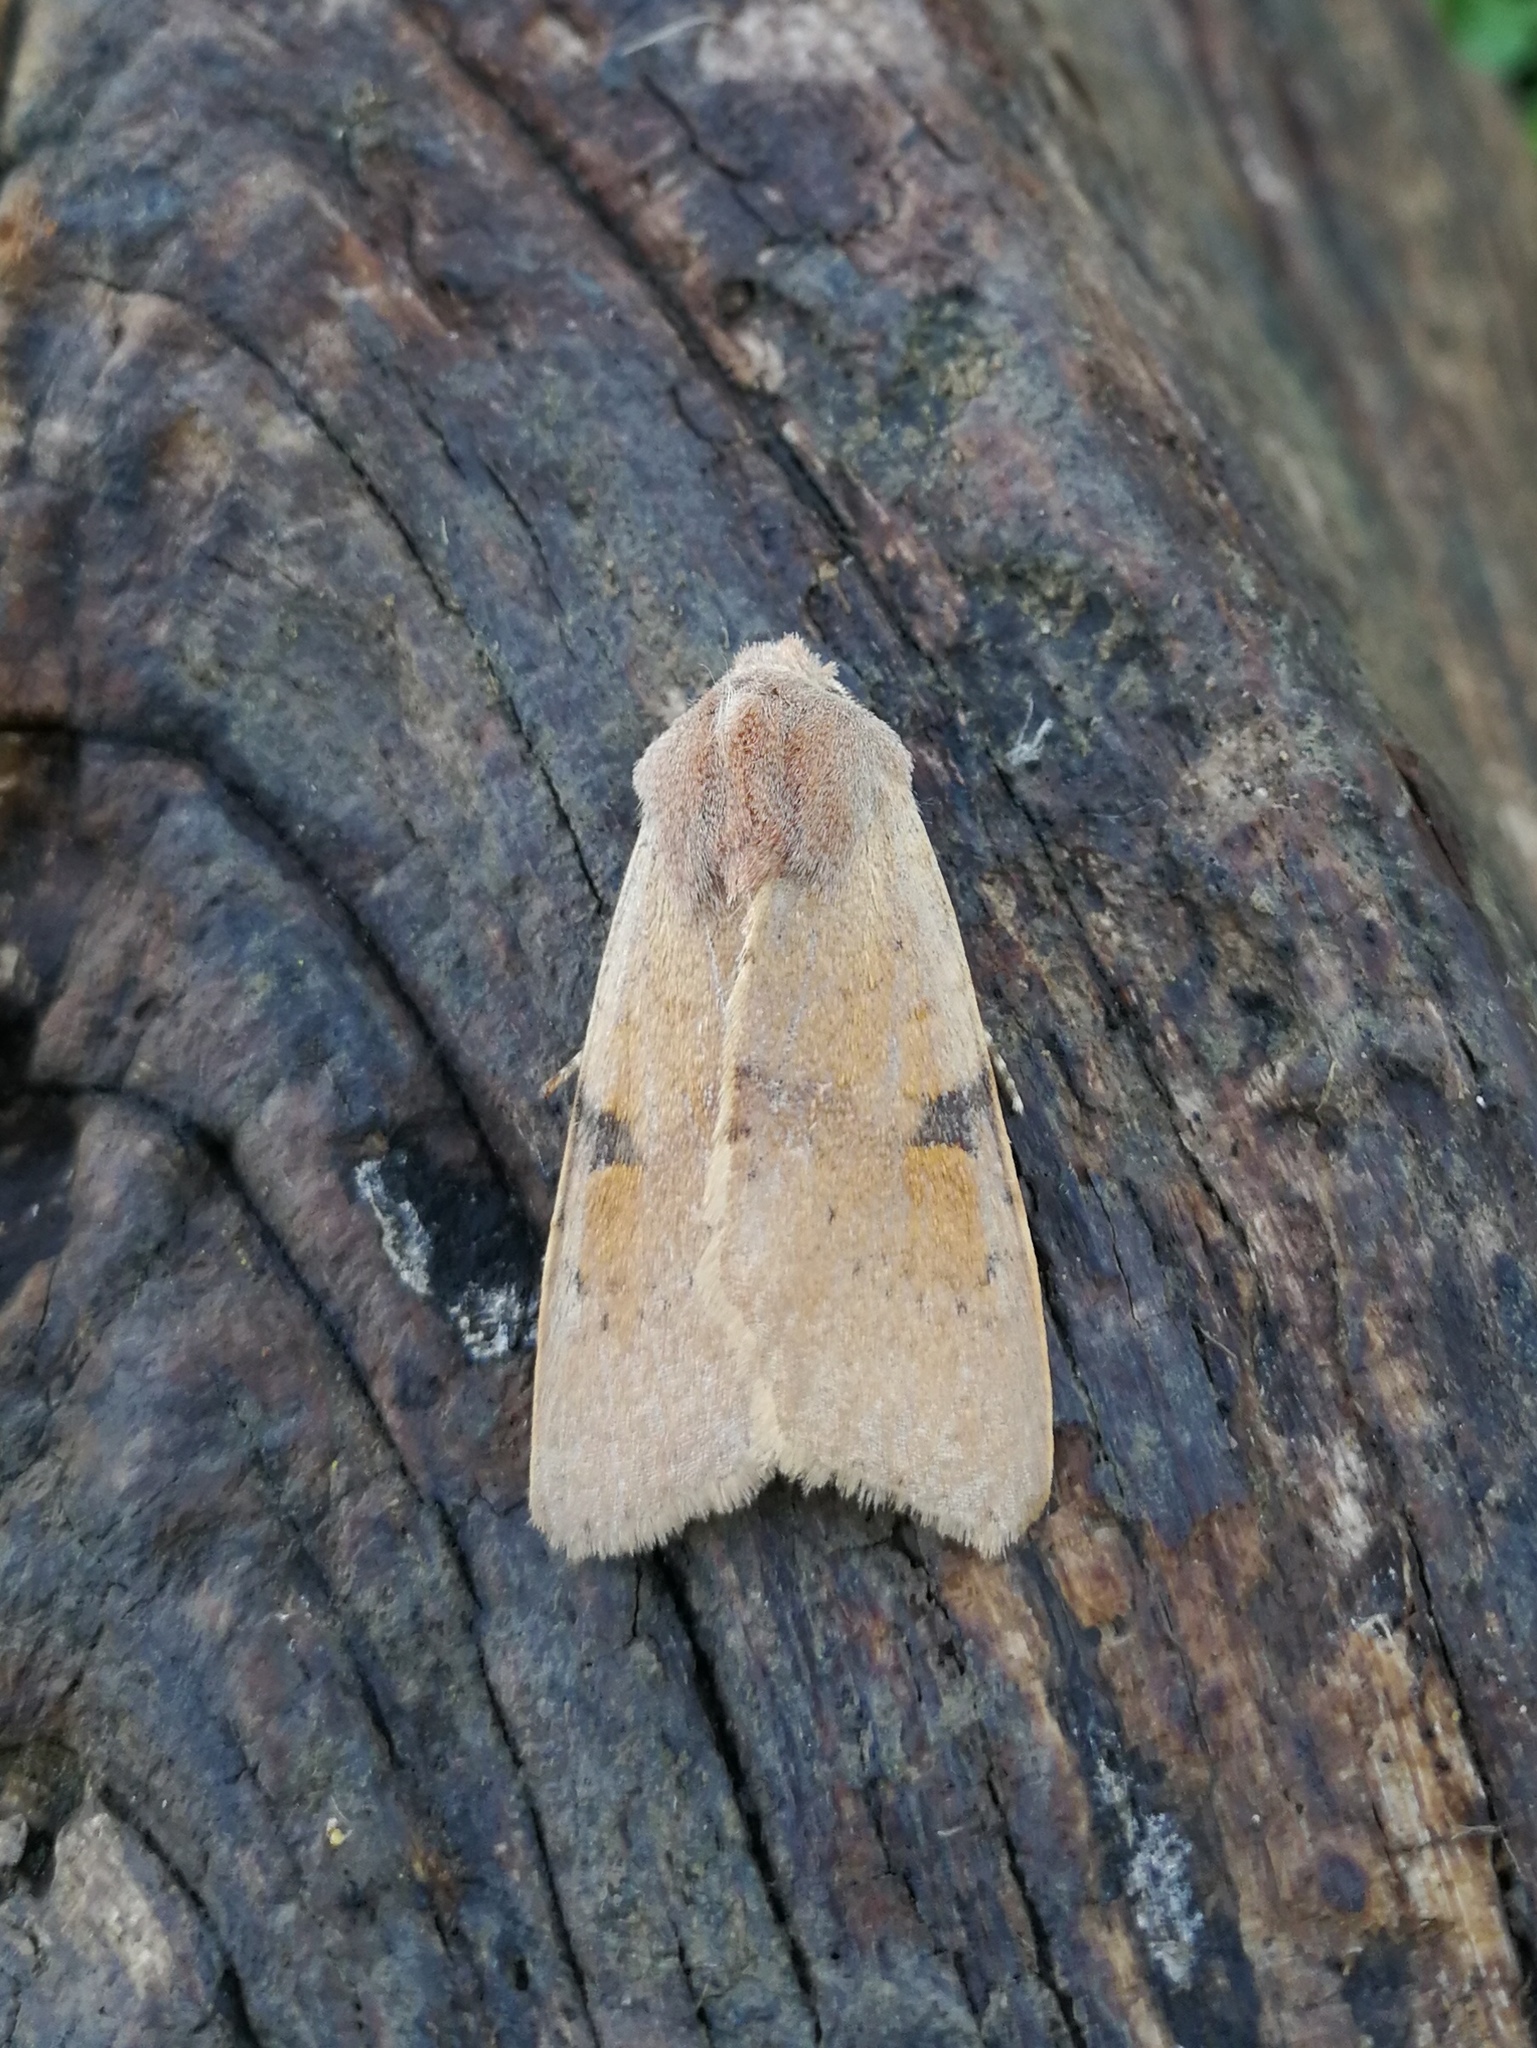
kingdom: Animalia
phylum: Arthropoda
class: Insecta
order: Lepidoptera
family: Noctuidae
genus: Ammopolia
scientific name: Ammopolia witzenmanni
